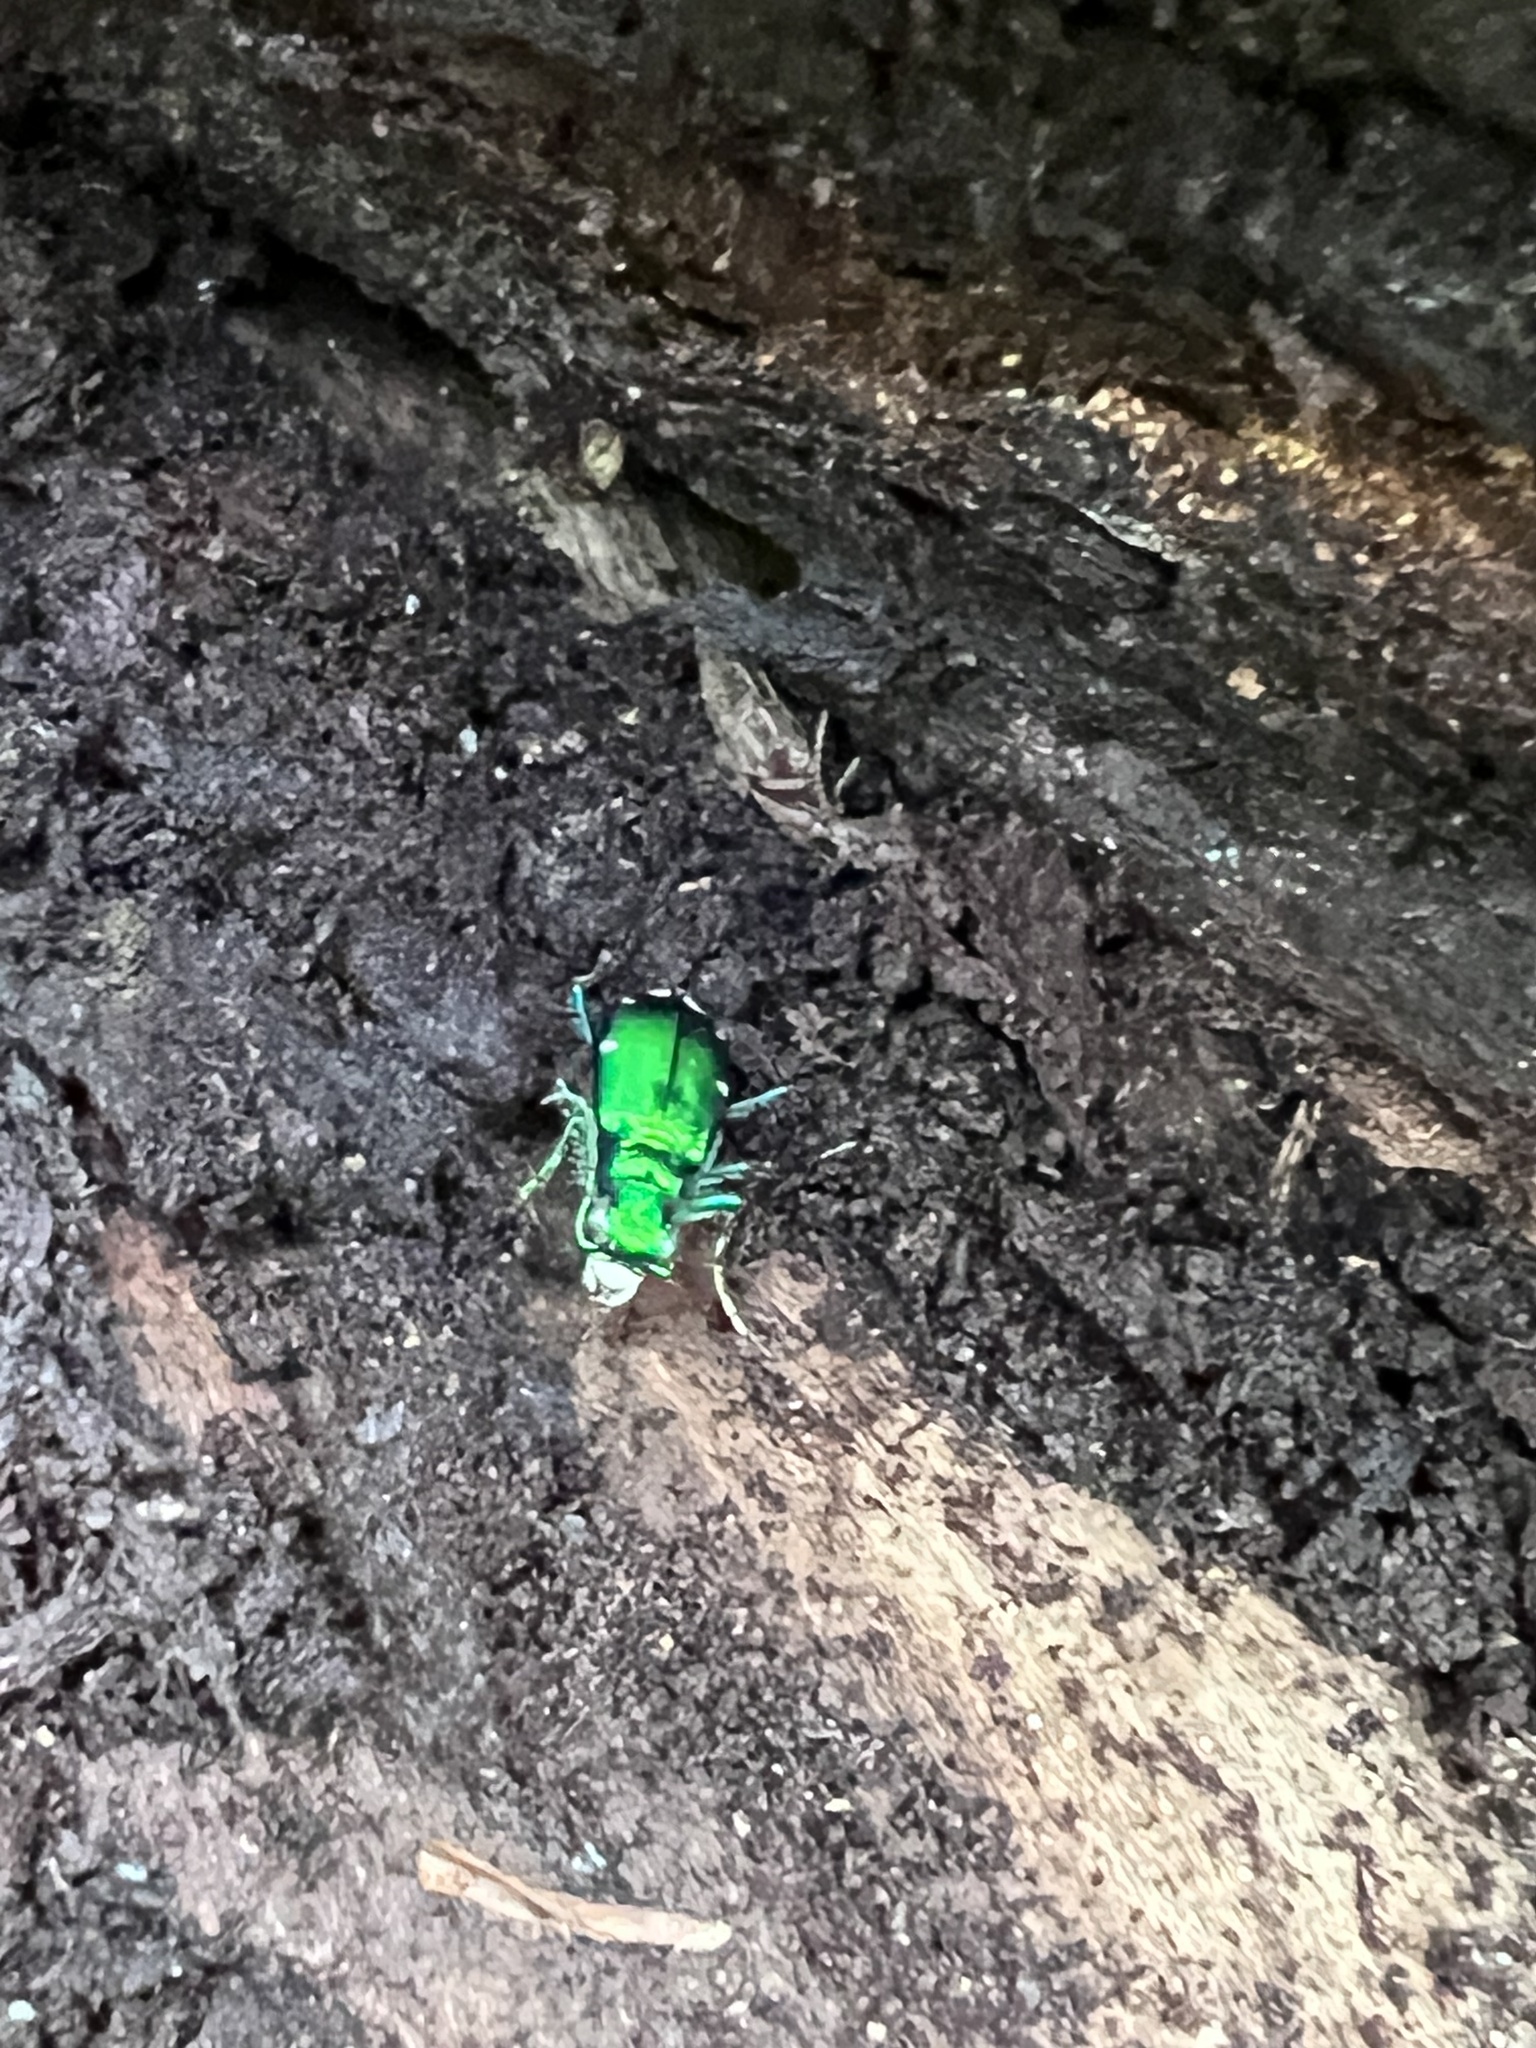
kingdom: Animalia
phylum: Arthropoda
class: Insecta
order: Coleoptera
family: Carabidae
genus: Cicindela
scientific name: Cicindela sexguttata
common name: Six-spotted tiger beetle
